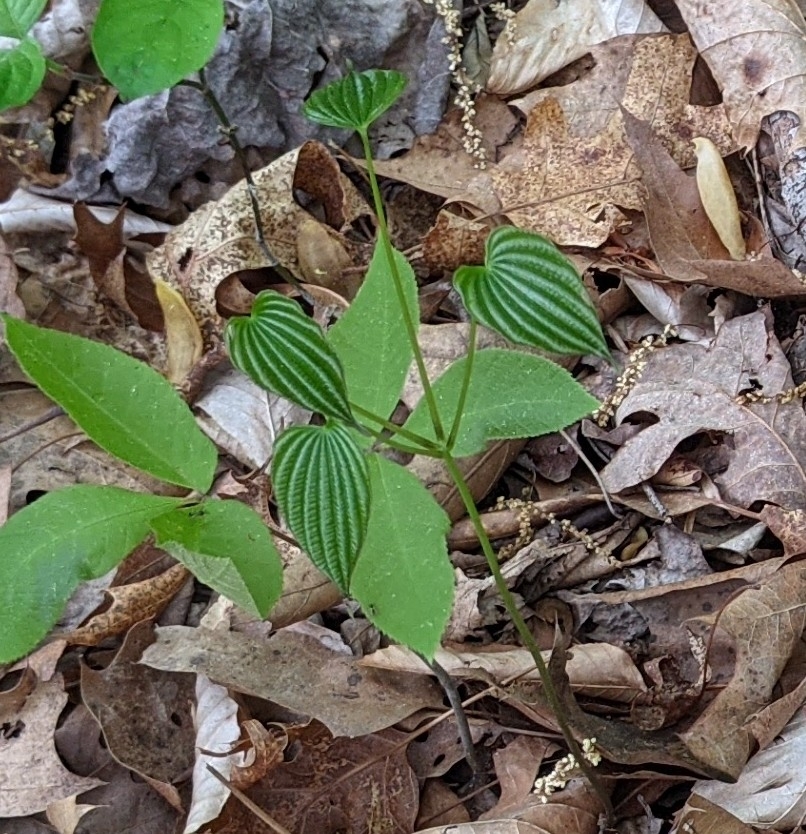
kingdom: Plantae
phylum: Tracheophyta
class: Liliopsida
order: Dioscoreales
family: Dioscoreaceae
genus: Dioscorea
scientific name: Dioscorea villosa
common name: Wild yam
